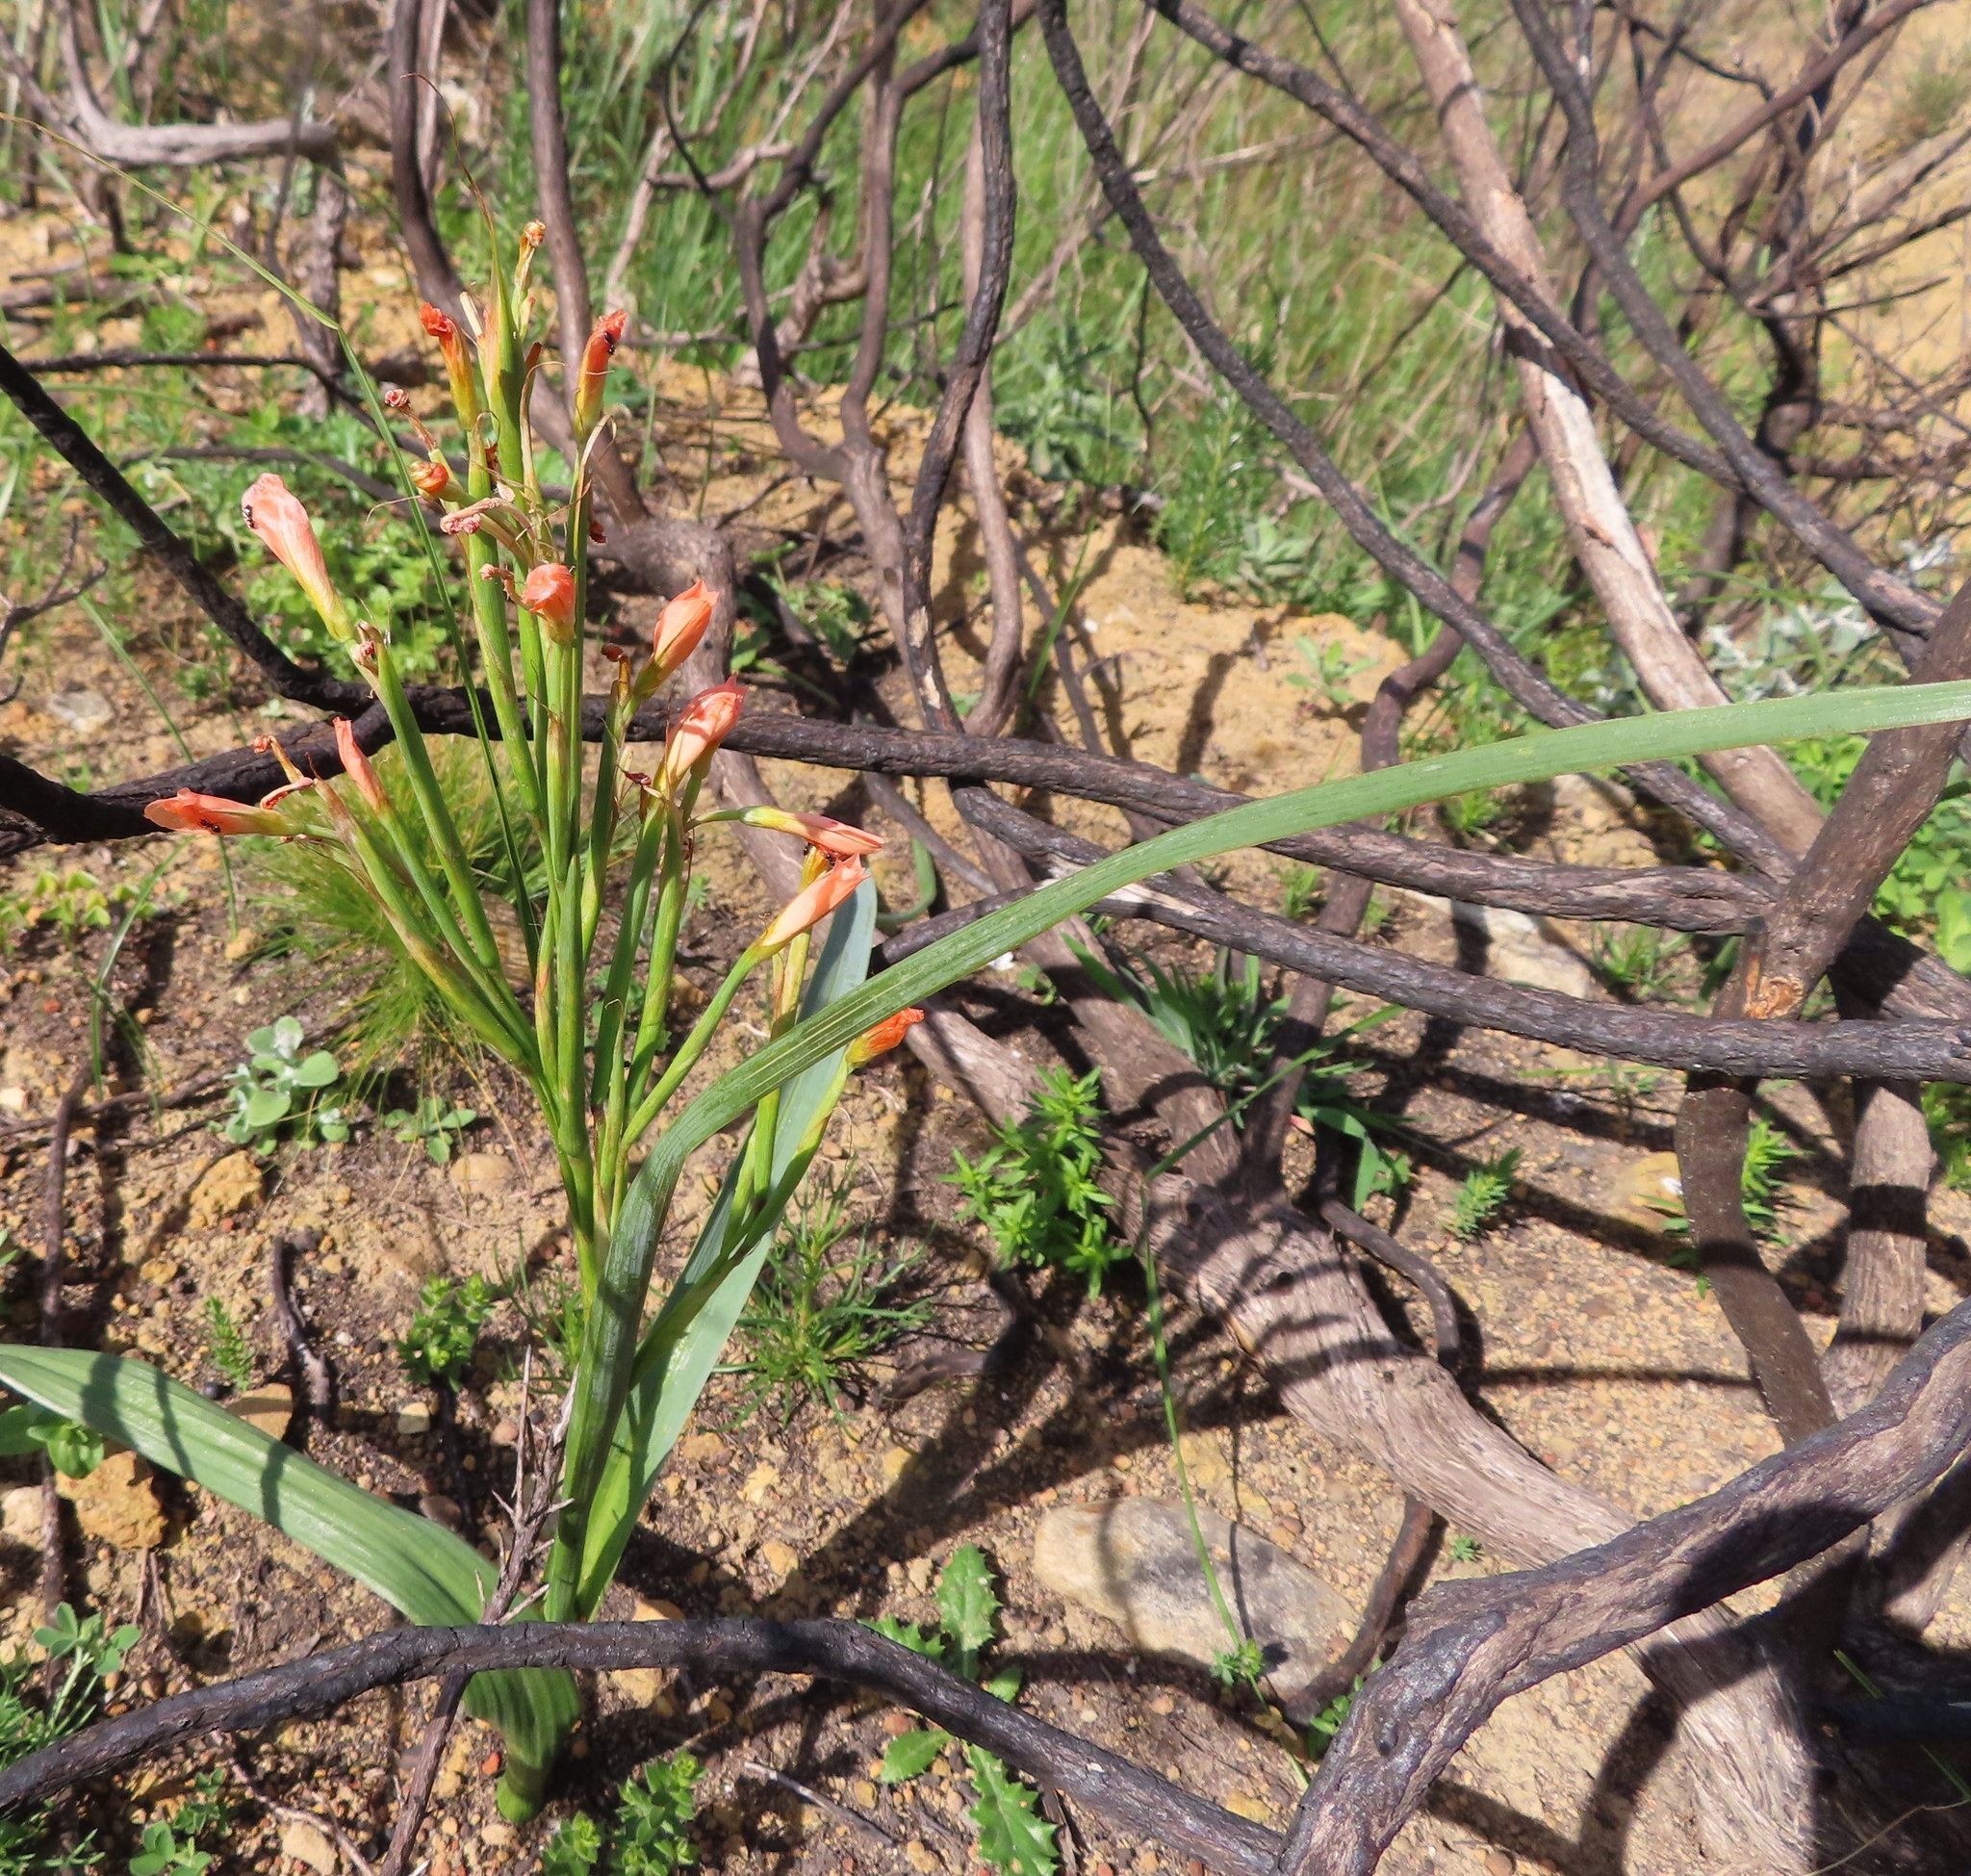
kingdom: Plantae
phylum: Tracheophyta
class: Liliopsida
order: Asparagales
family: Iridaceae
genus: Moraea
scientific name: Moraea flaccida
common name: One-leaf cape-tulip
